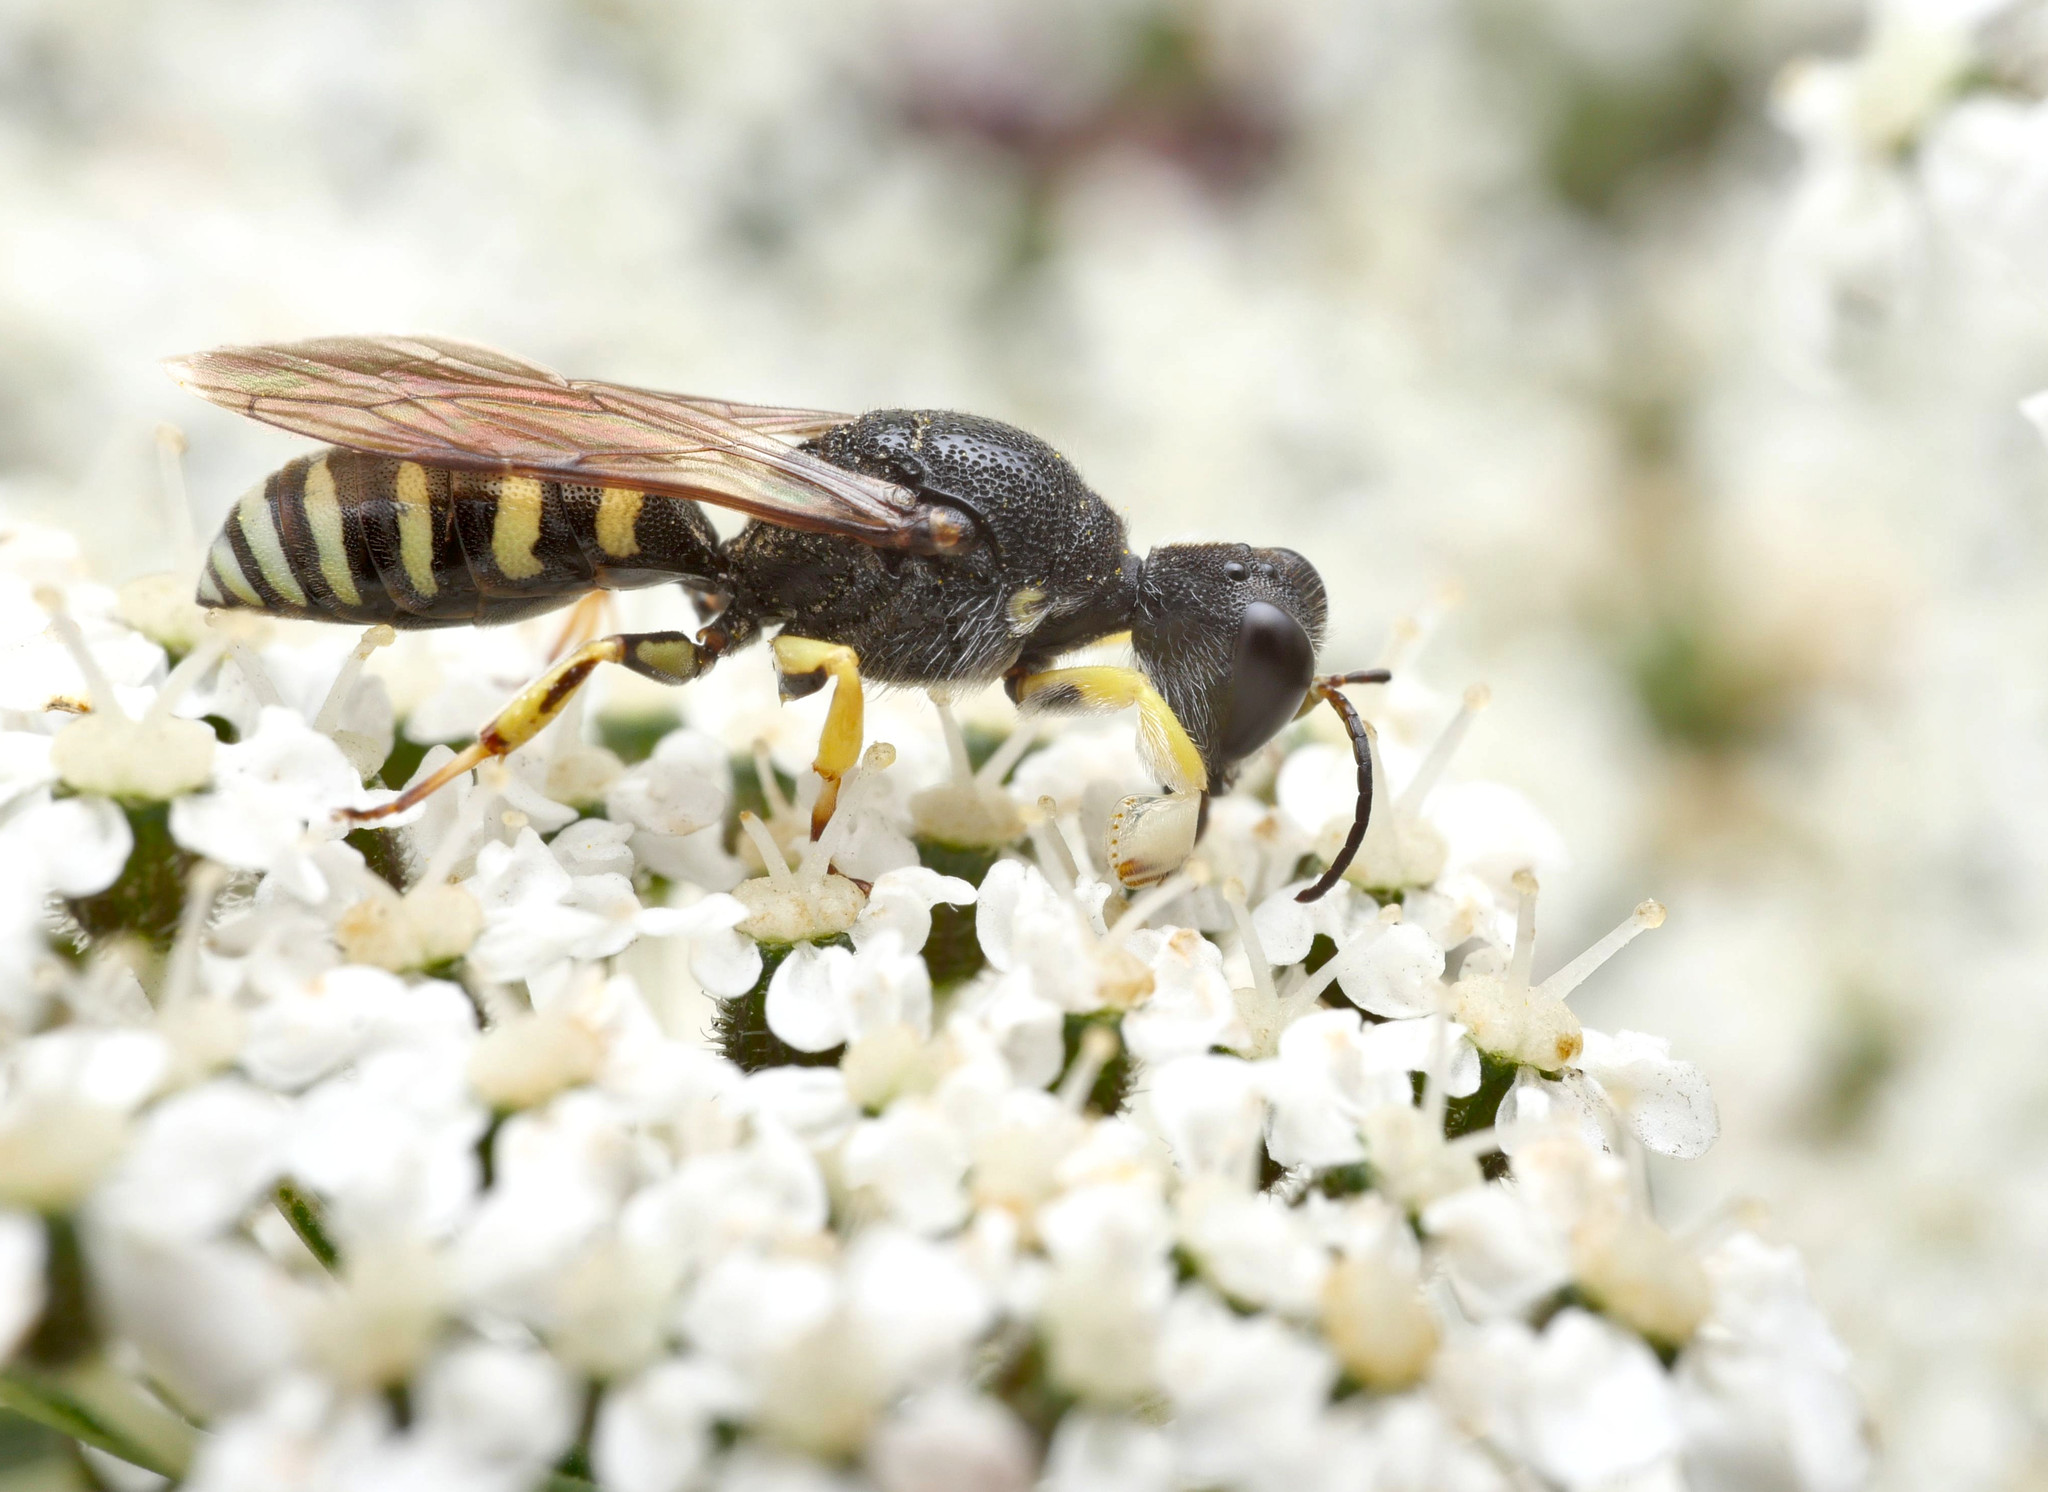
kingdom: Animalia
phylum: Arthropoda
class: Insecta
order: Hymenoptera
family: Crabronidae
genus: Lestica
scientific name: Lestica clypeata
